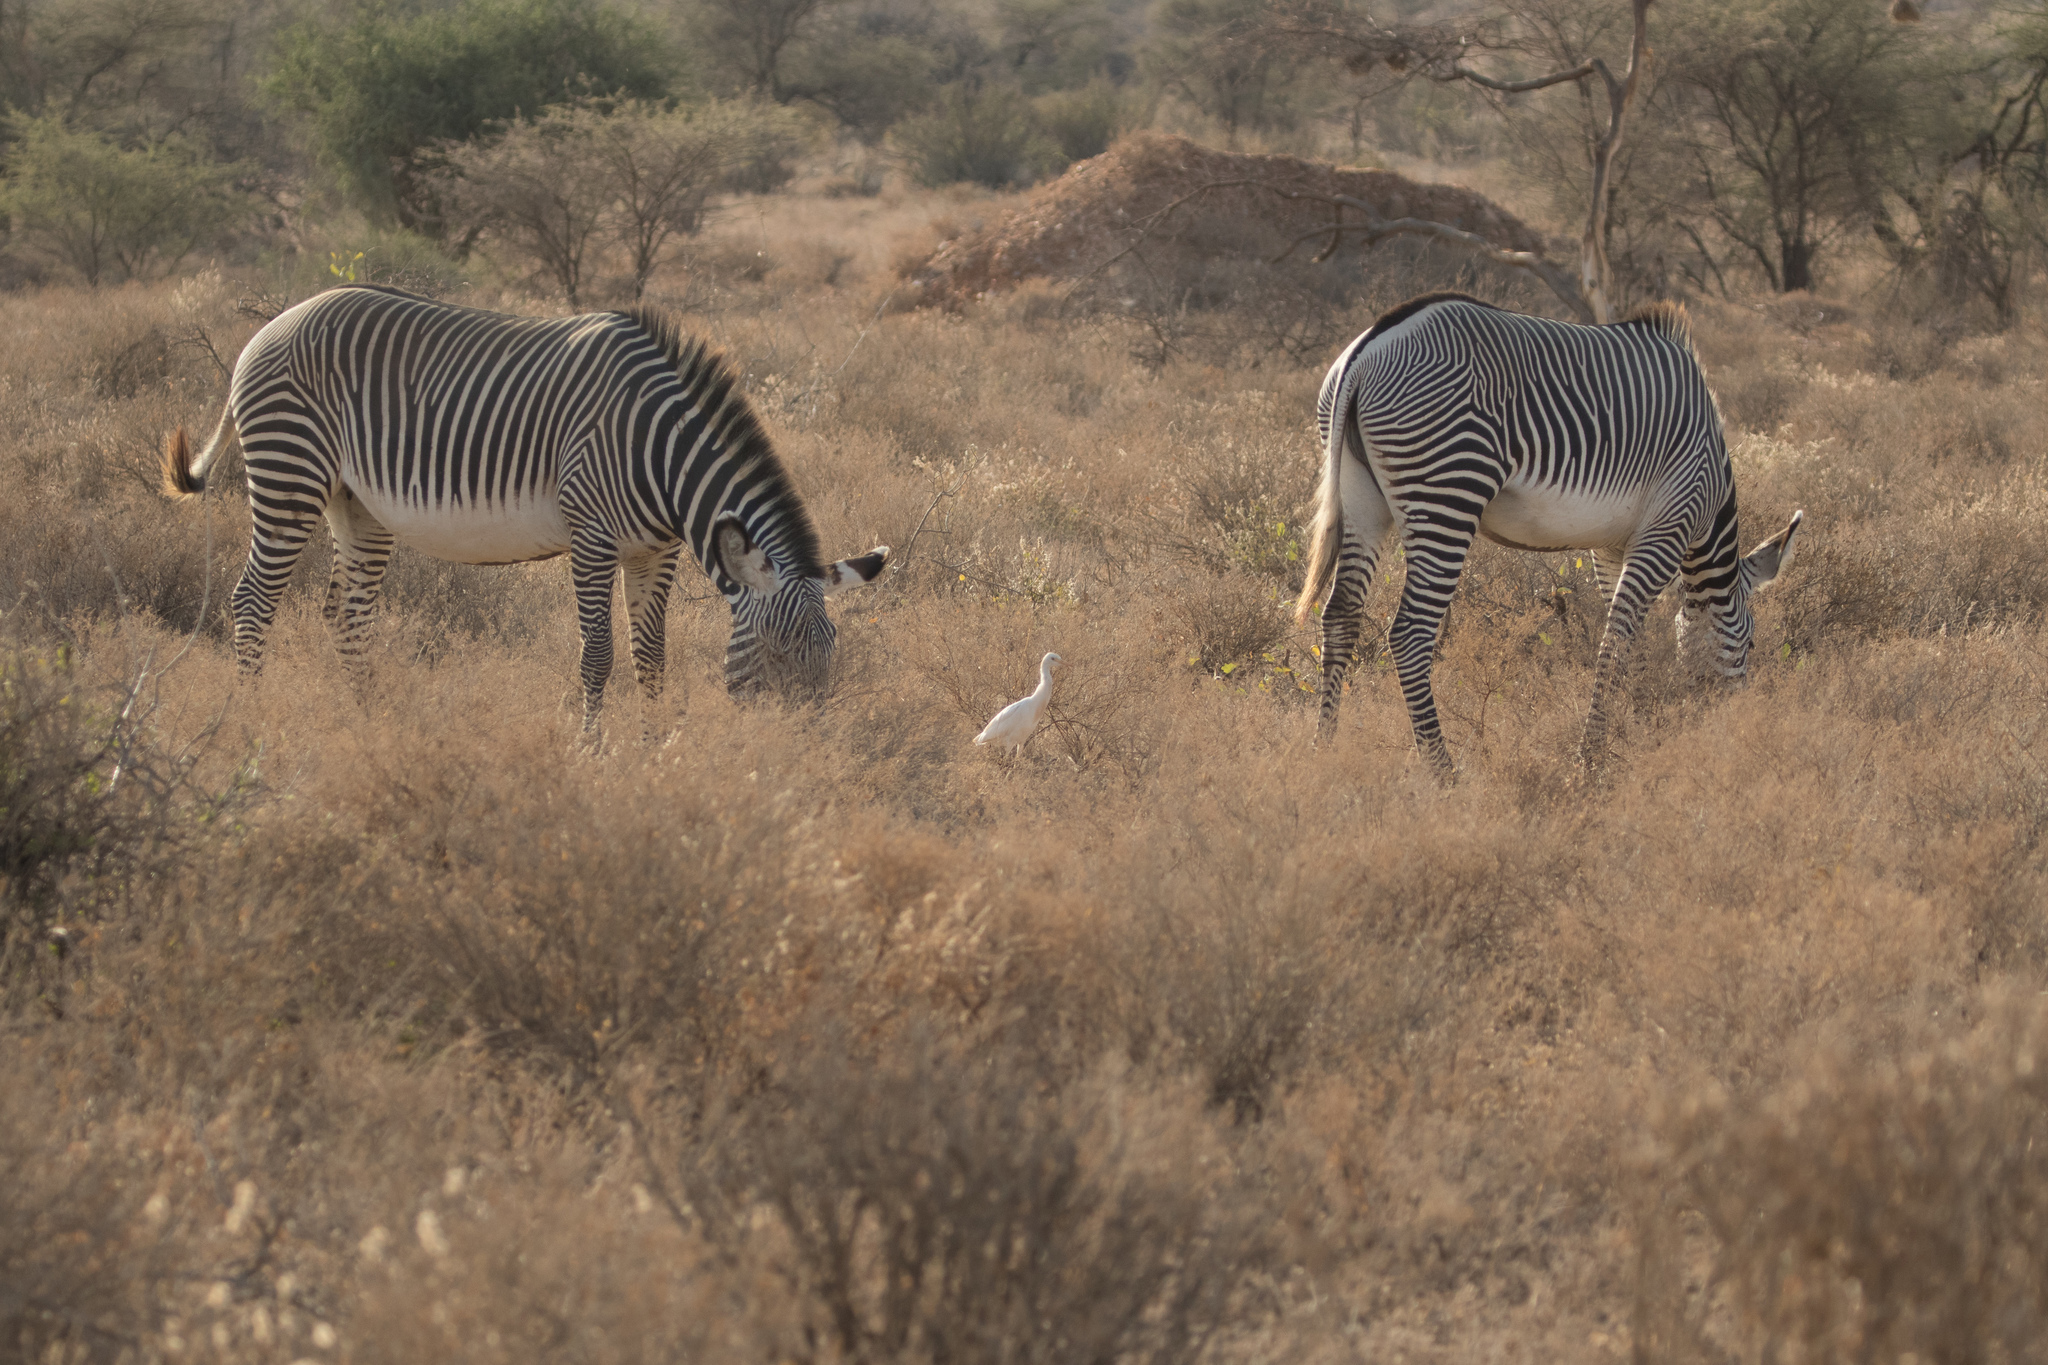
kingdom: Animalia
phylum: Chordata
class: Aves
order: Pelecaniformes
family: Ardeidae
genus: Bubulcus
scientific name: Bubulcus ibis
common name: Cattle egret
